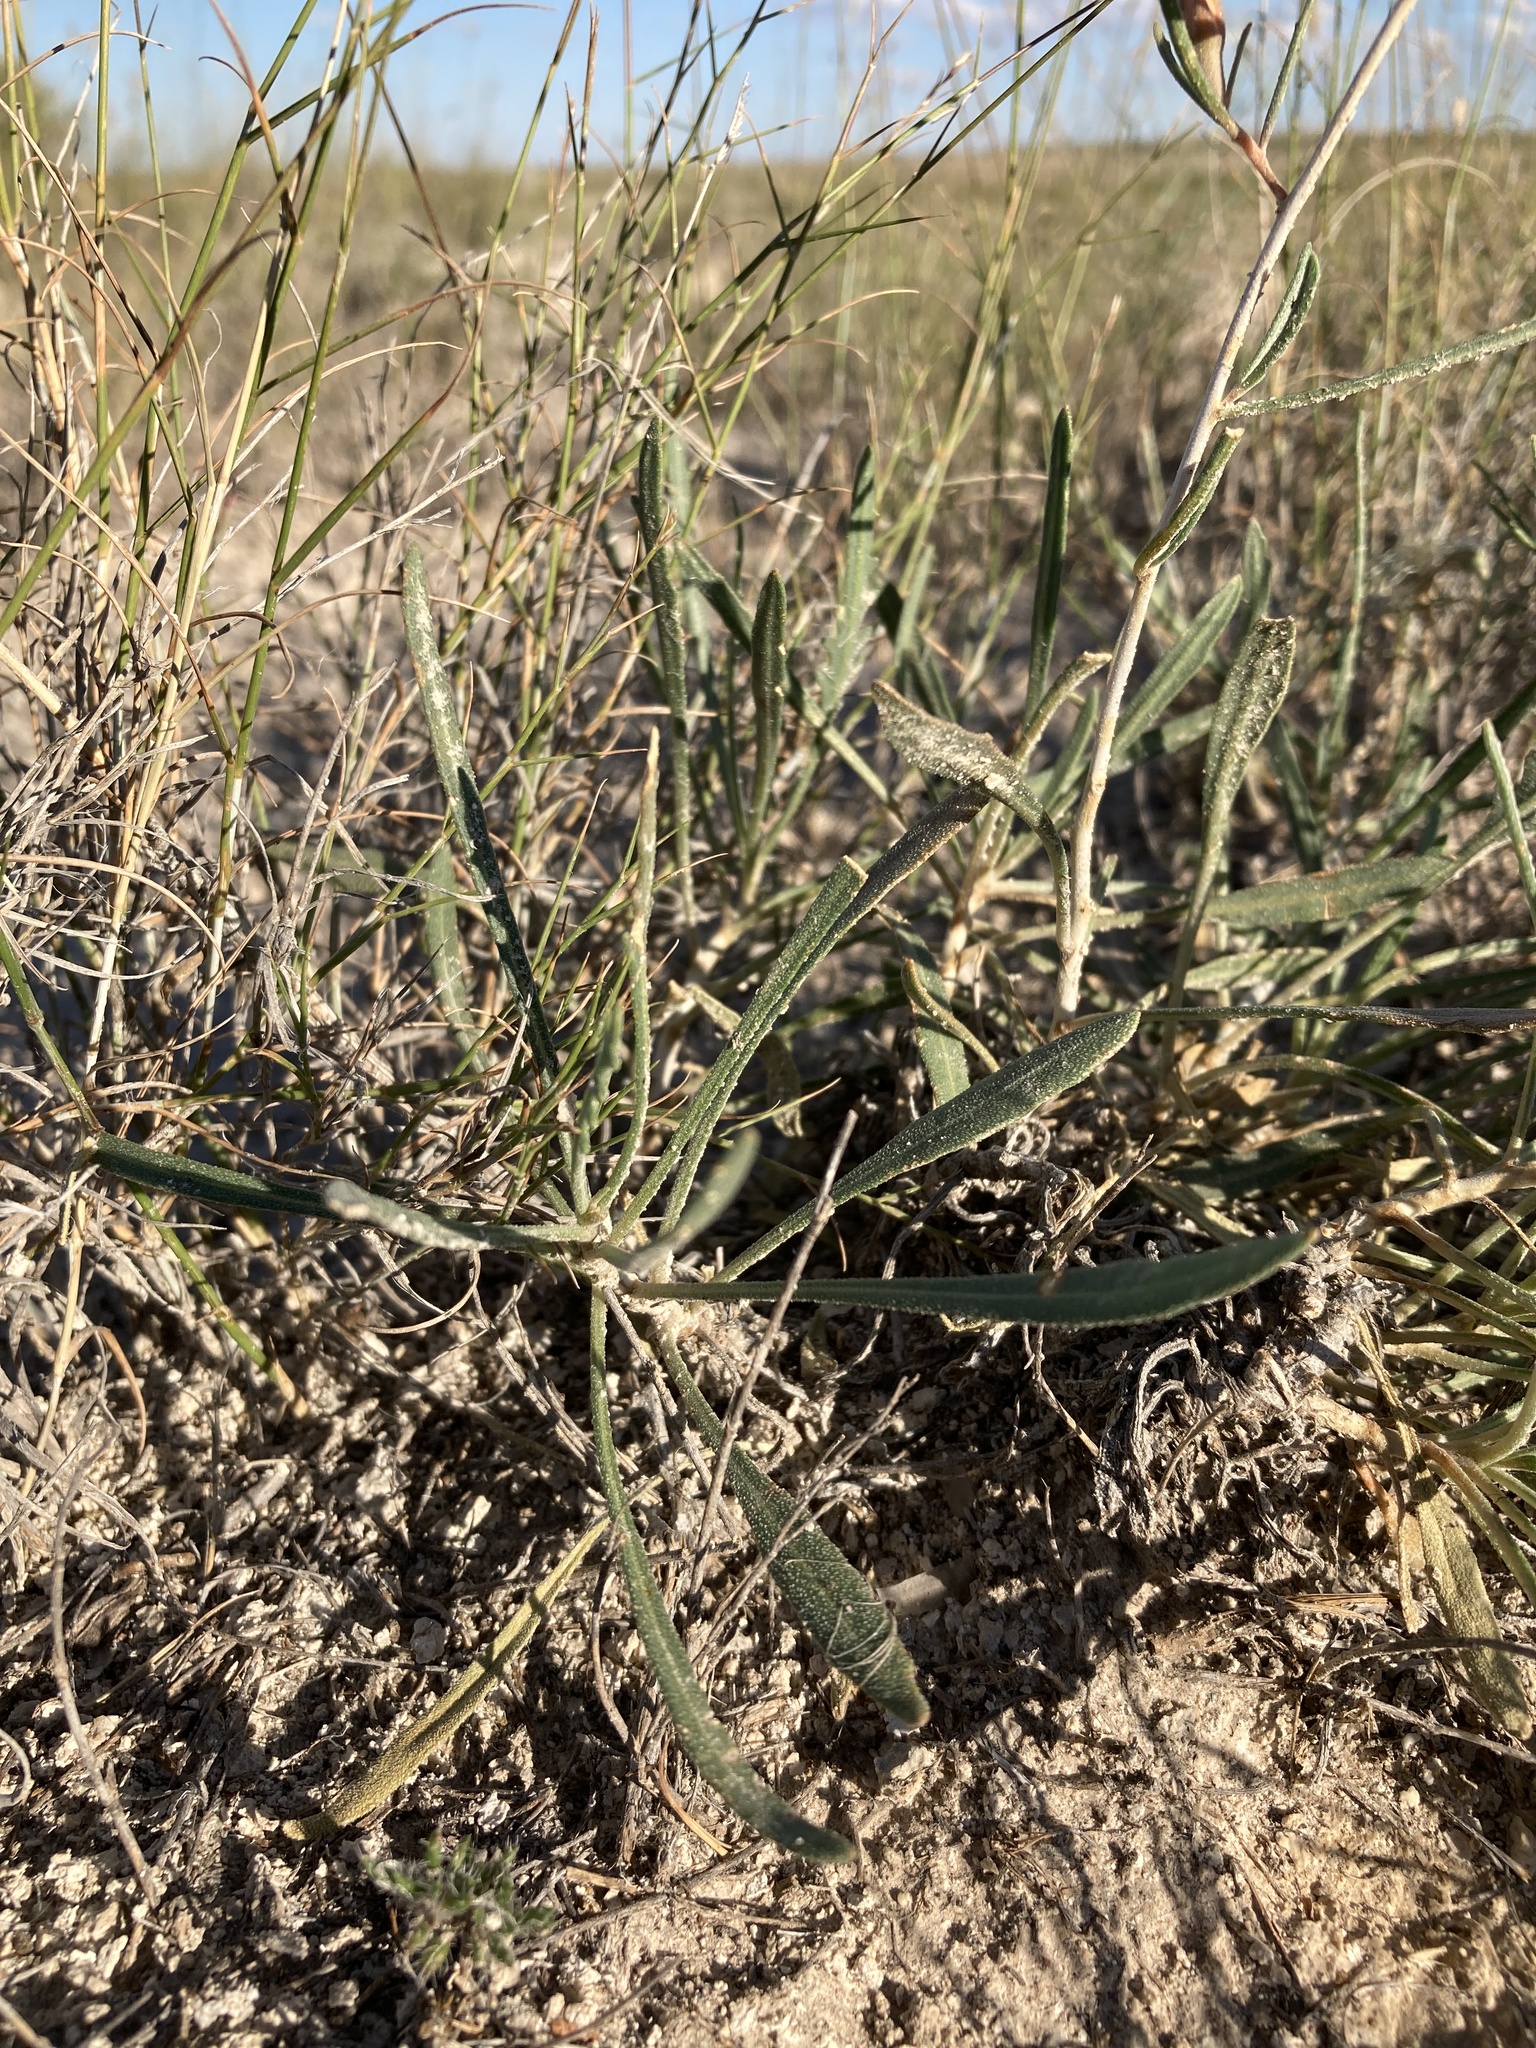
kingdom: Plantae
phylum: Tracheophyta
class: Magnoliopsida
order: Cornales
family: Loasaceae
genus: Mentzelia
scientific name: Mentzelia humilis
